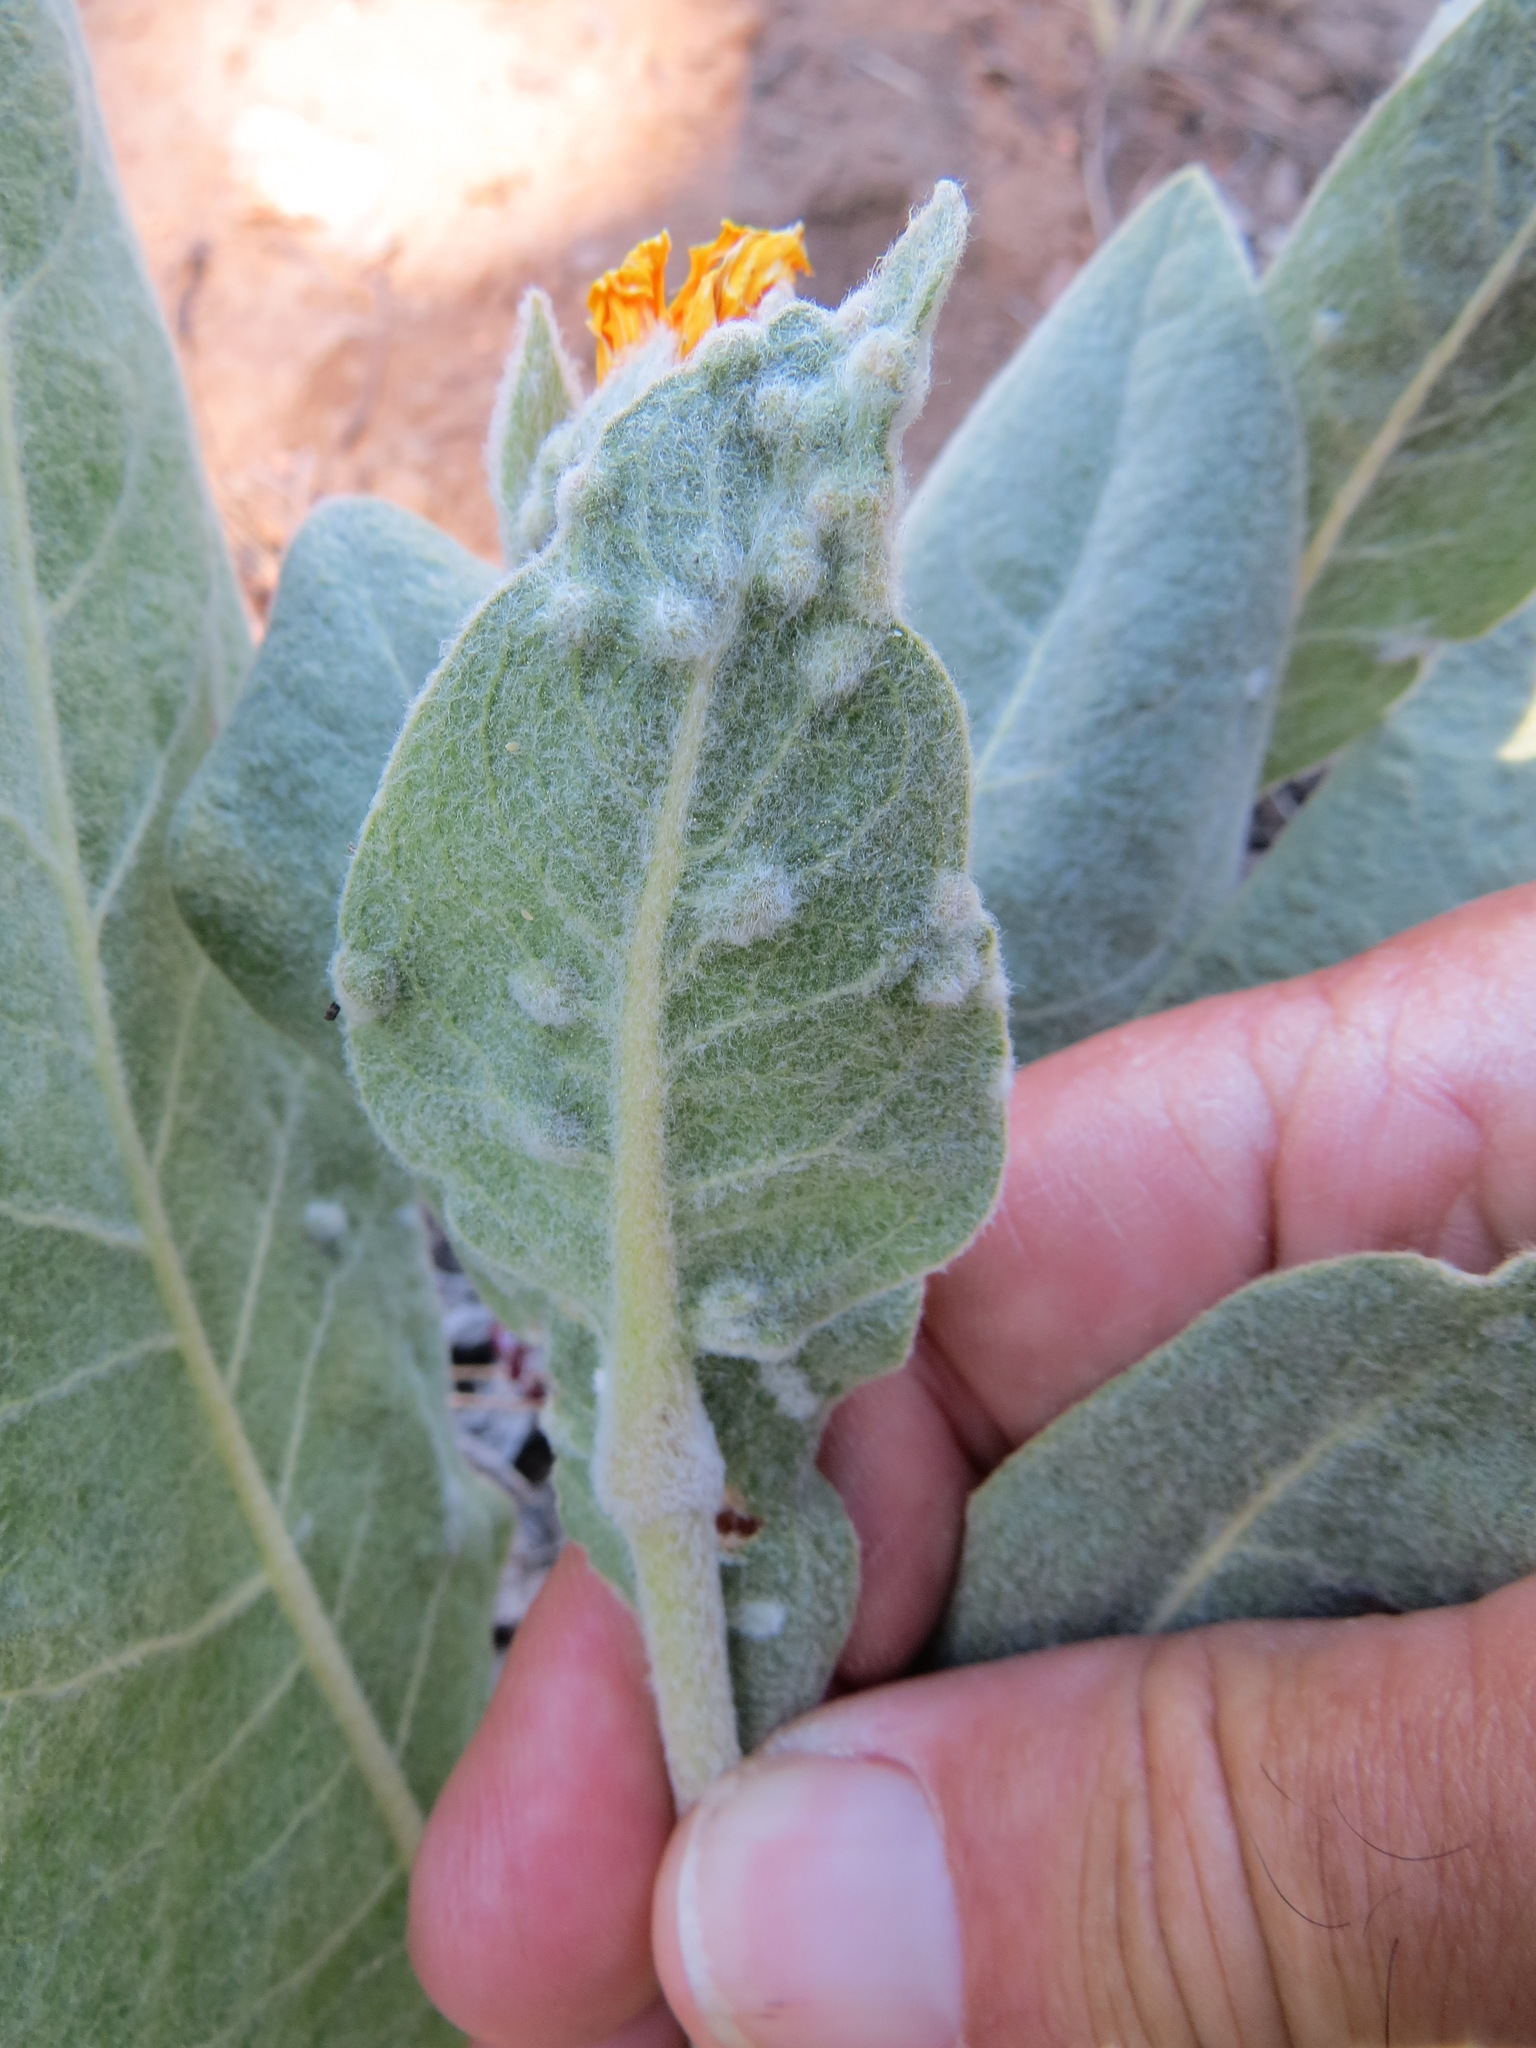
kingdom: Animalia
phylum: Nematoda
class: Chromadorea
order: Rhabditida
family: Anguinidae
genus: Anguina
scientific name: Anguina
